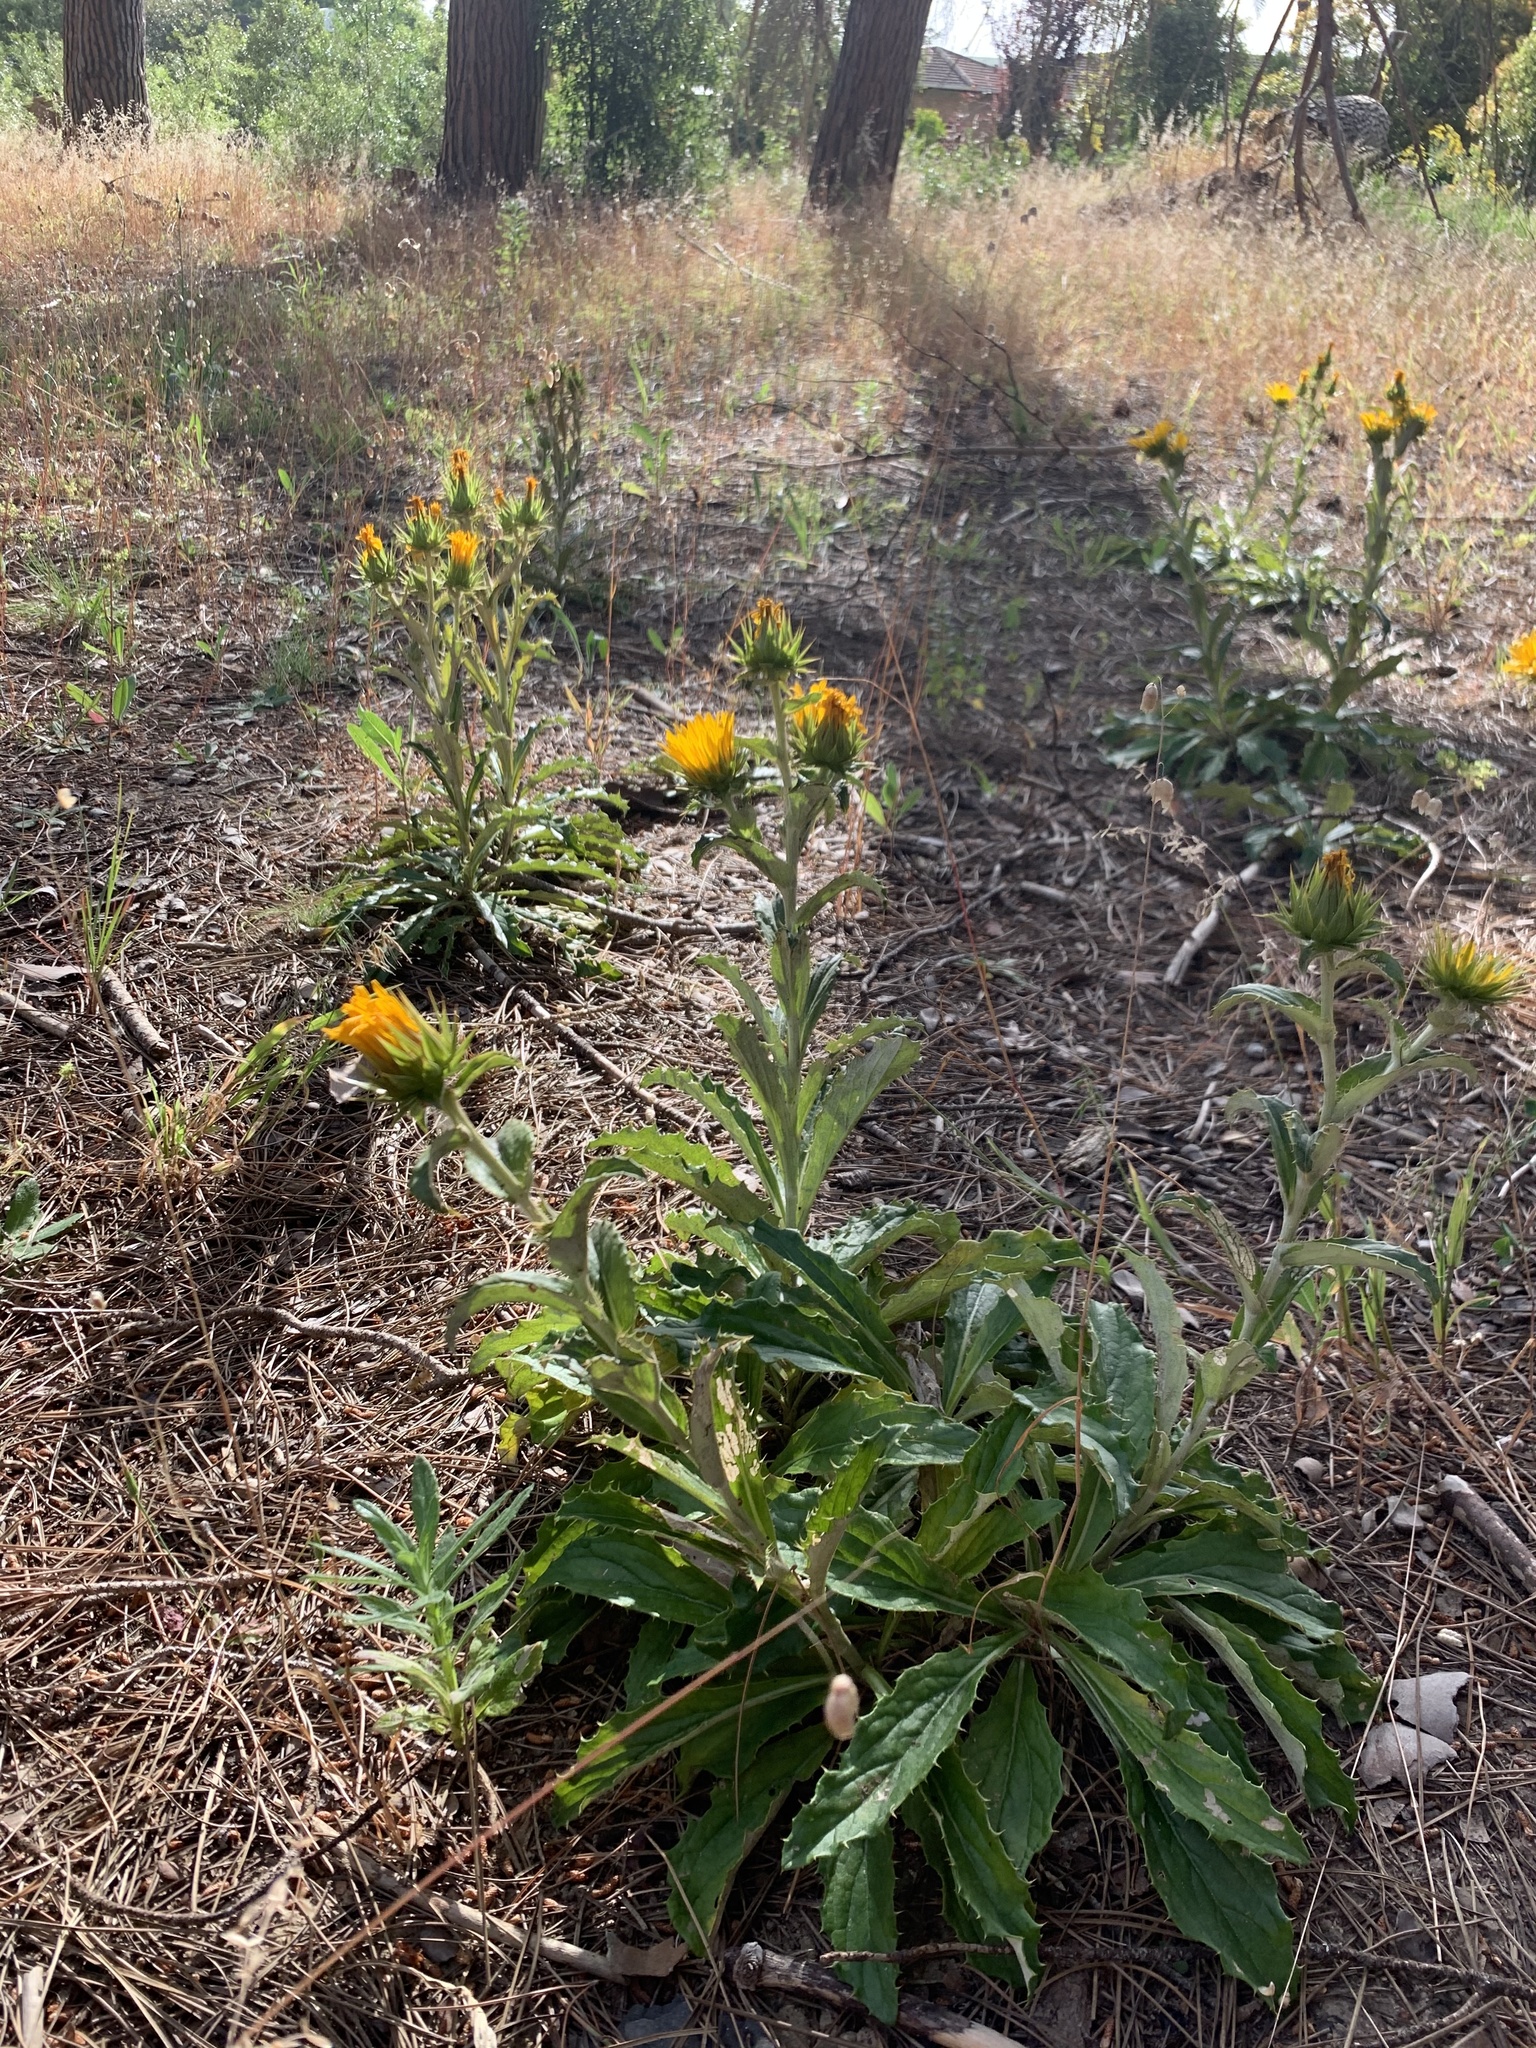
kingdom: Plantae
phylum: Tracheophyta
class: Magnoliopsida
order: Asterales
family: Asteraceae
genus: Berkheya
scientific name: Berkheya armata
